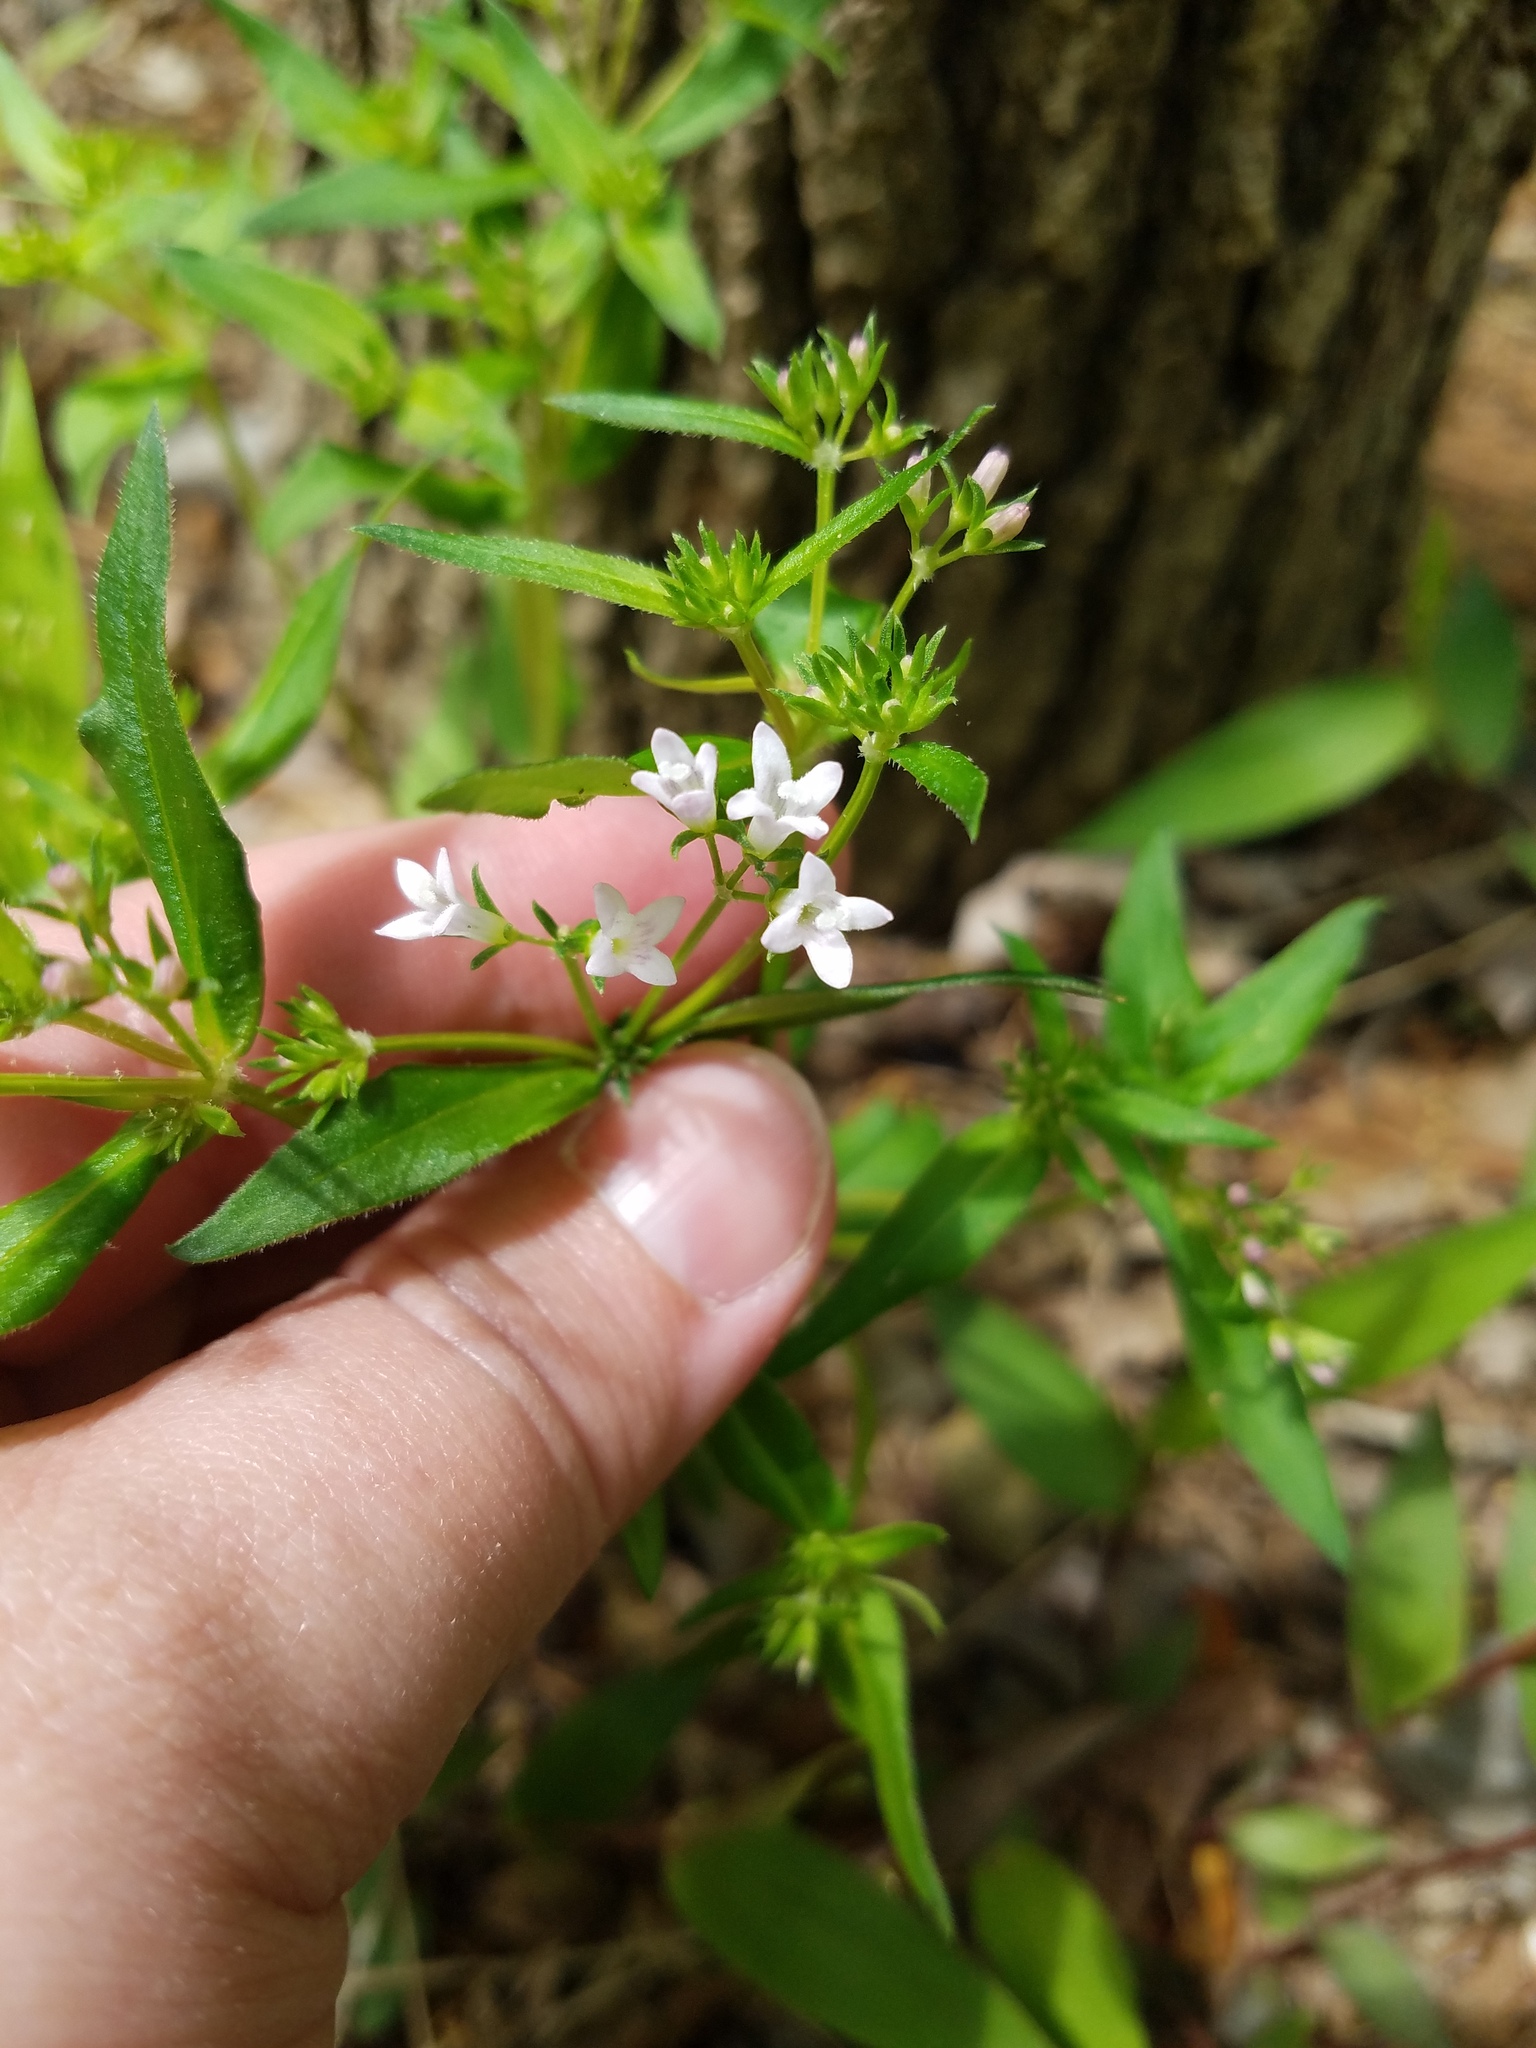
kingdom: Plantae
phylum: Tracheophyta
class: Magnoliopsida
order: Gentianales
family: Rubiaceae
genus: Houstonia
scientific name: Houstonia purpurea
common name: Summer bluet
